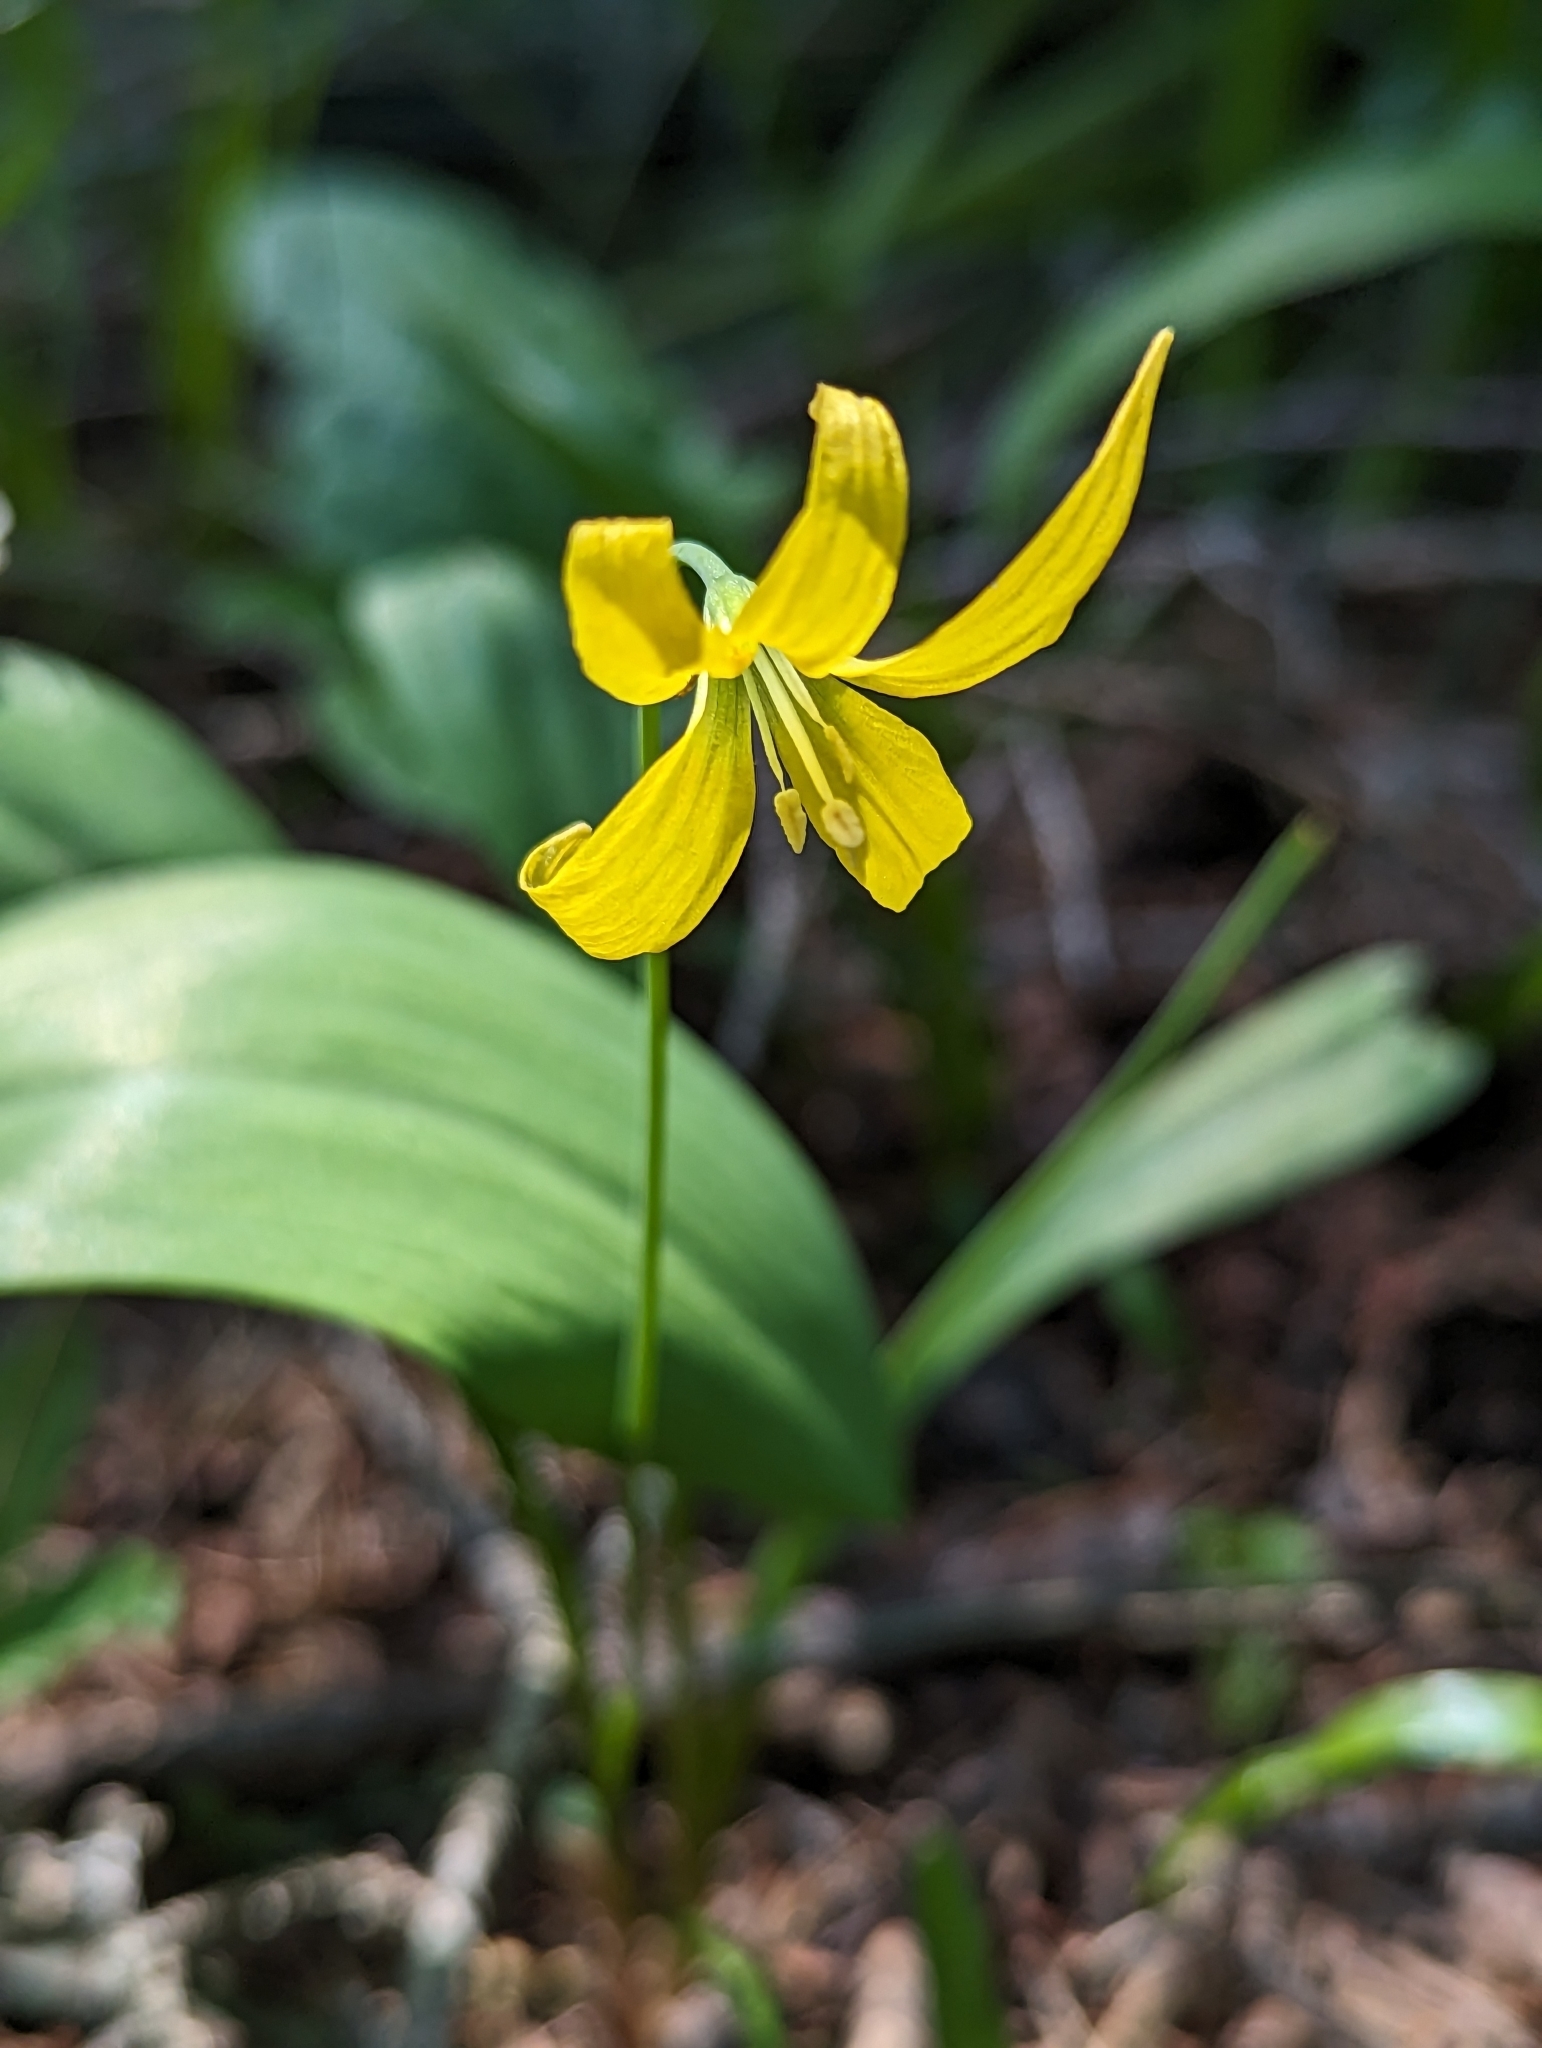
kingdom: Plantae
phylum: Tracheophyta
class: Liliopsida
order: Liliales
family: Liliaceae
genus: Erythronium
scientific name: Erythronium grandiflorum
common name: Avalanche-lily
